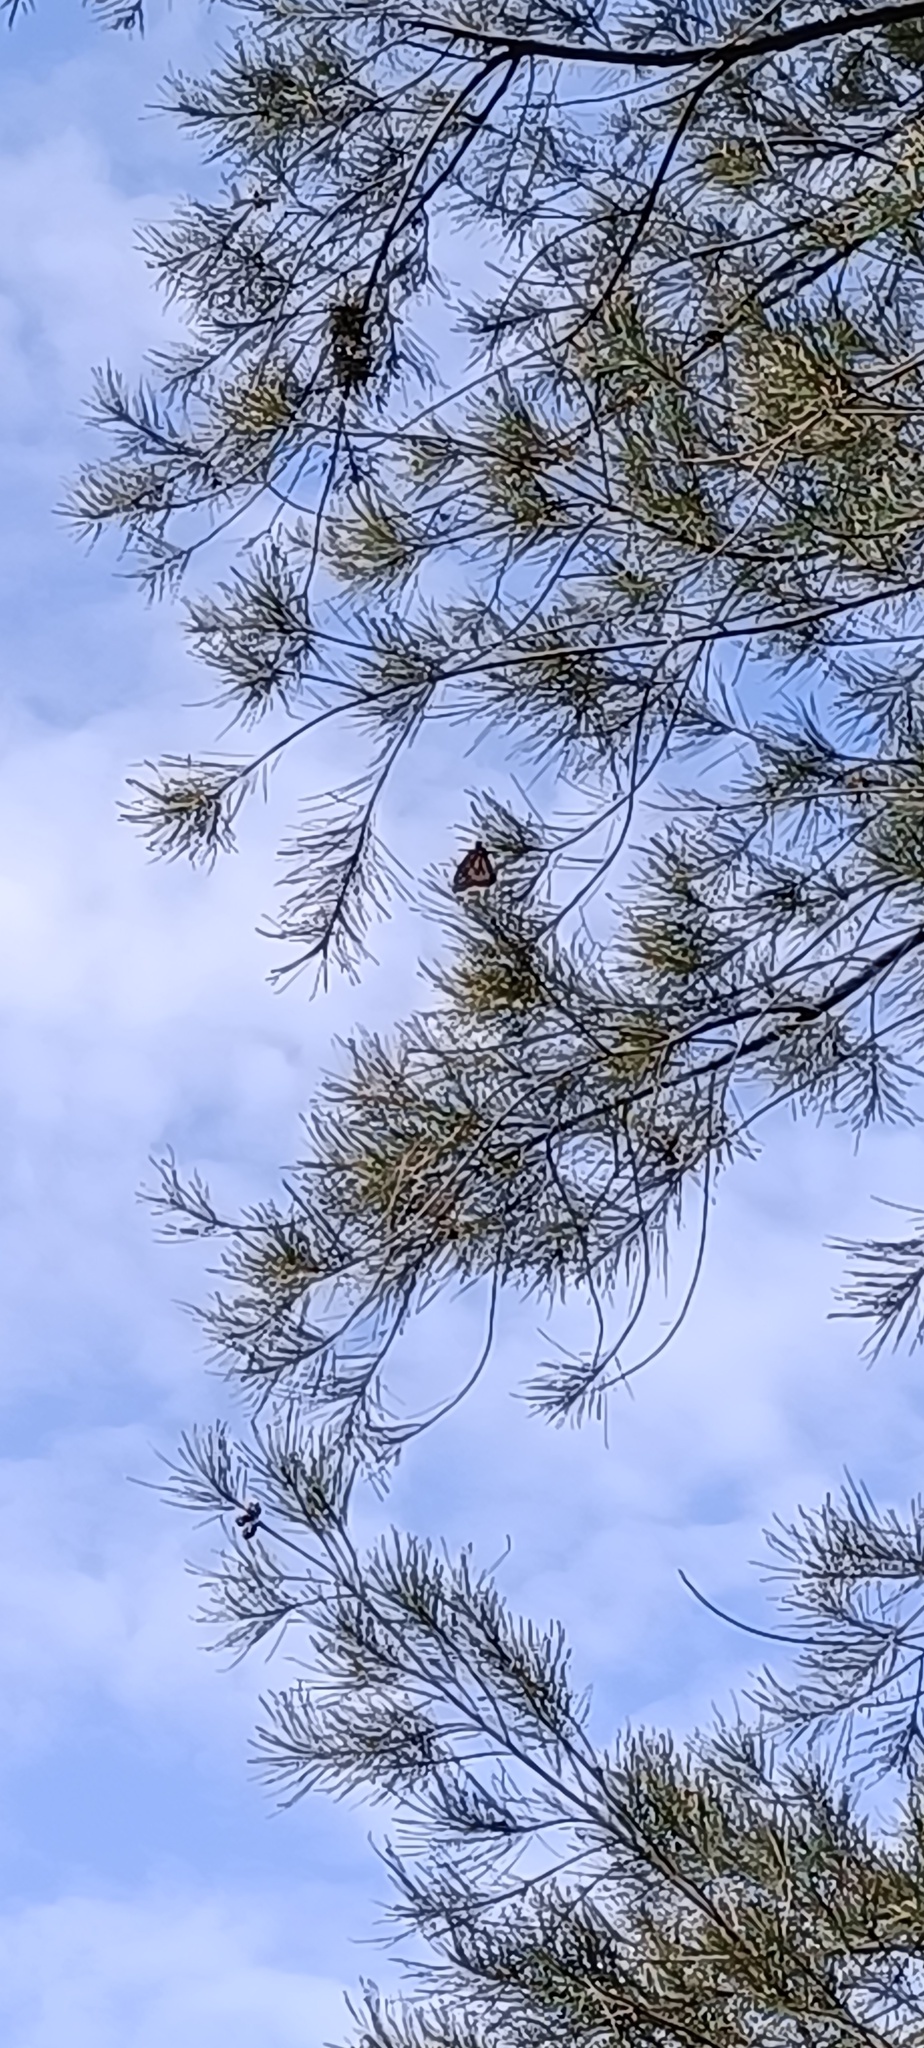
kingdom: Animalia
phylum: Arthropoda
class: Insecta
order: Lepidoptera
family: Nymphalidae
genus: Danaus
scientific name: Danaus plexippus
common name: Monarch
